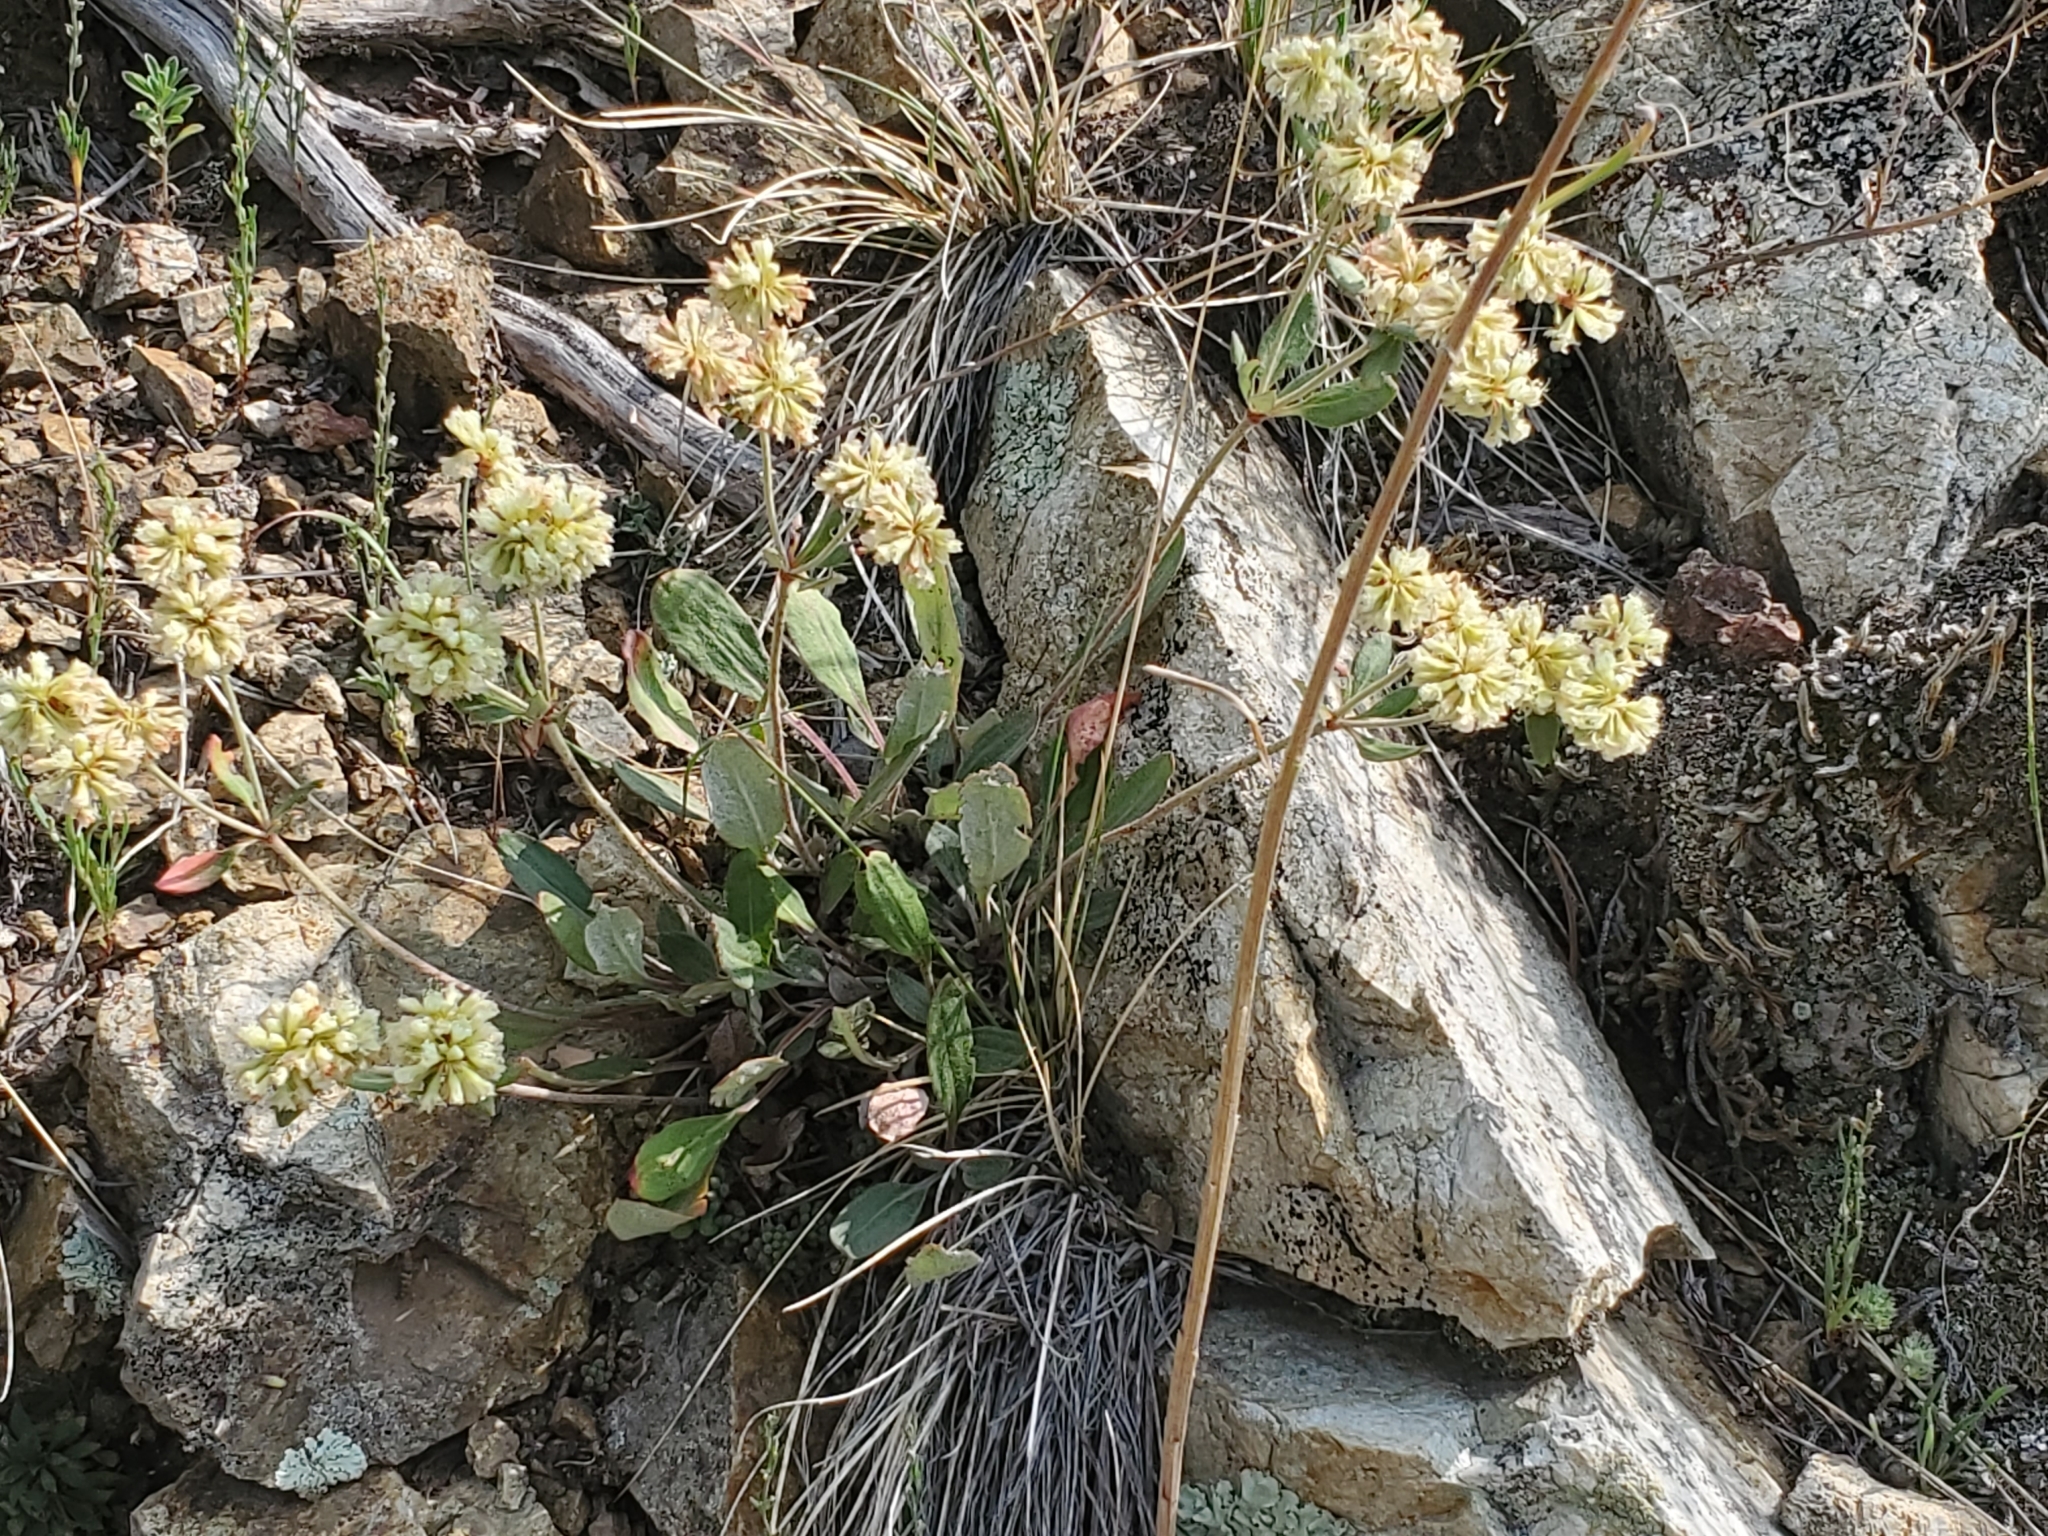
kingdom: Plantae
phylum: Tracheophyta
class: Magnoliopsida
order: Caryophyllales
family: Polygonaceae
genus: Eriogonum
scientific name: Eriogonum jamesii
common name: Antelope-sage
